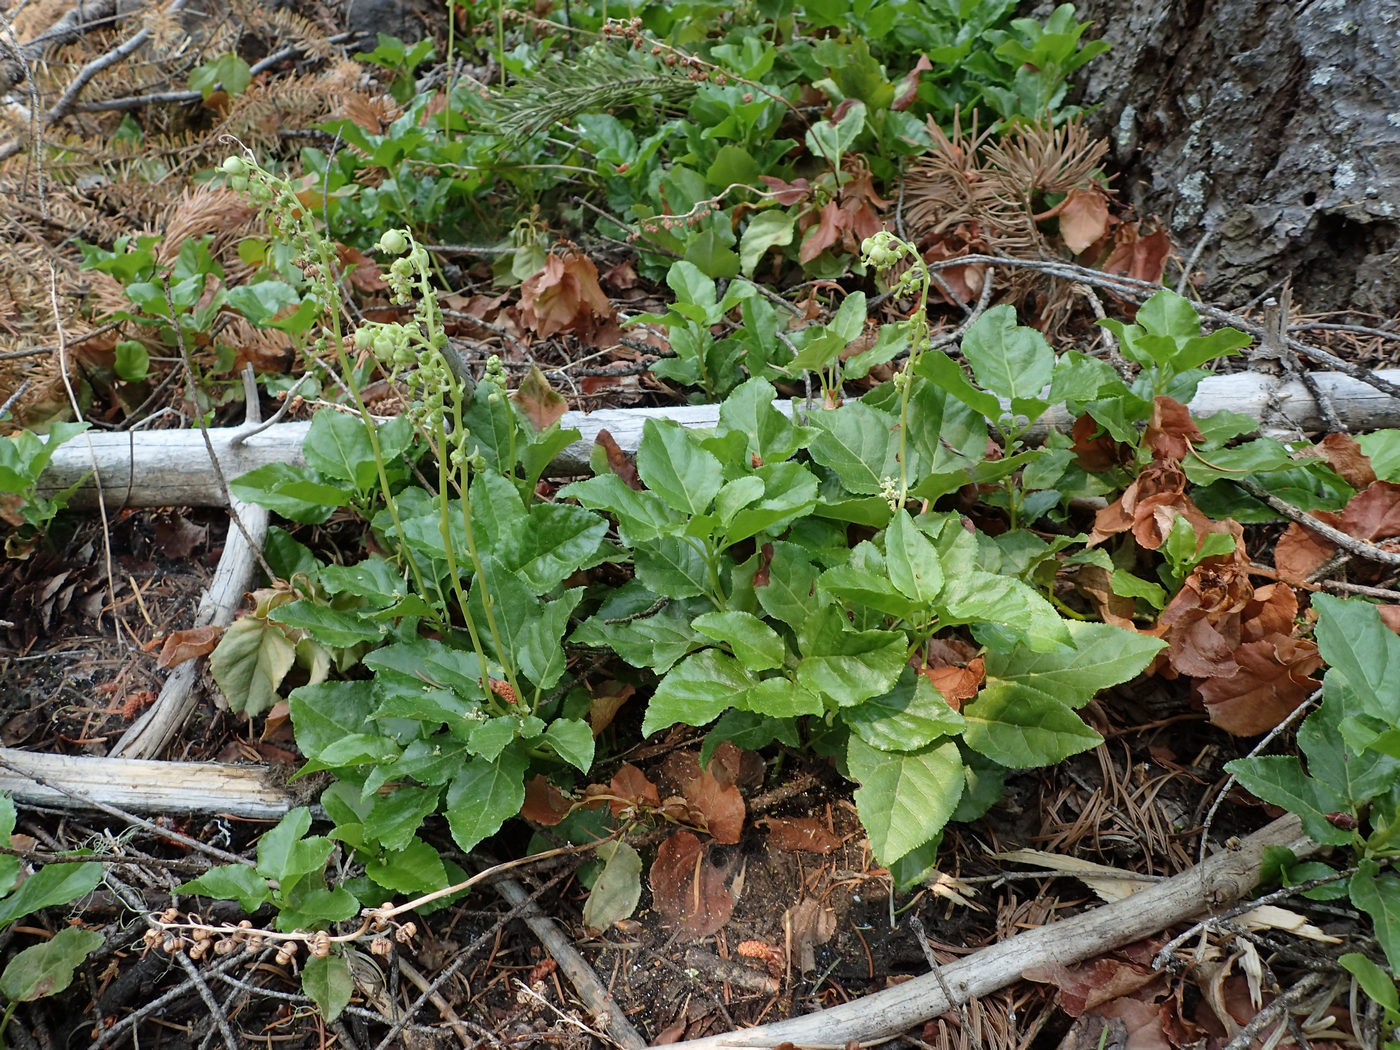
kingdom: Plantae
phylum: Tracheophyta
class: Magnoliopsida
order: Ericales
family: Ericaceae
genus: Orthilia
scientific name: Orthilia secunda
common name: One-sided orthilia
